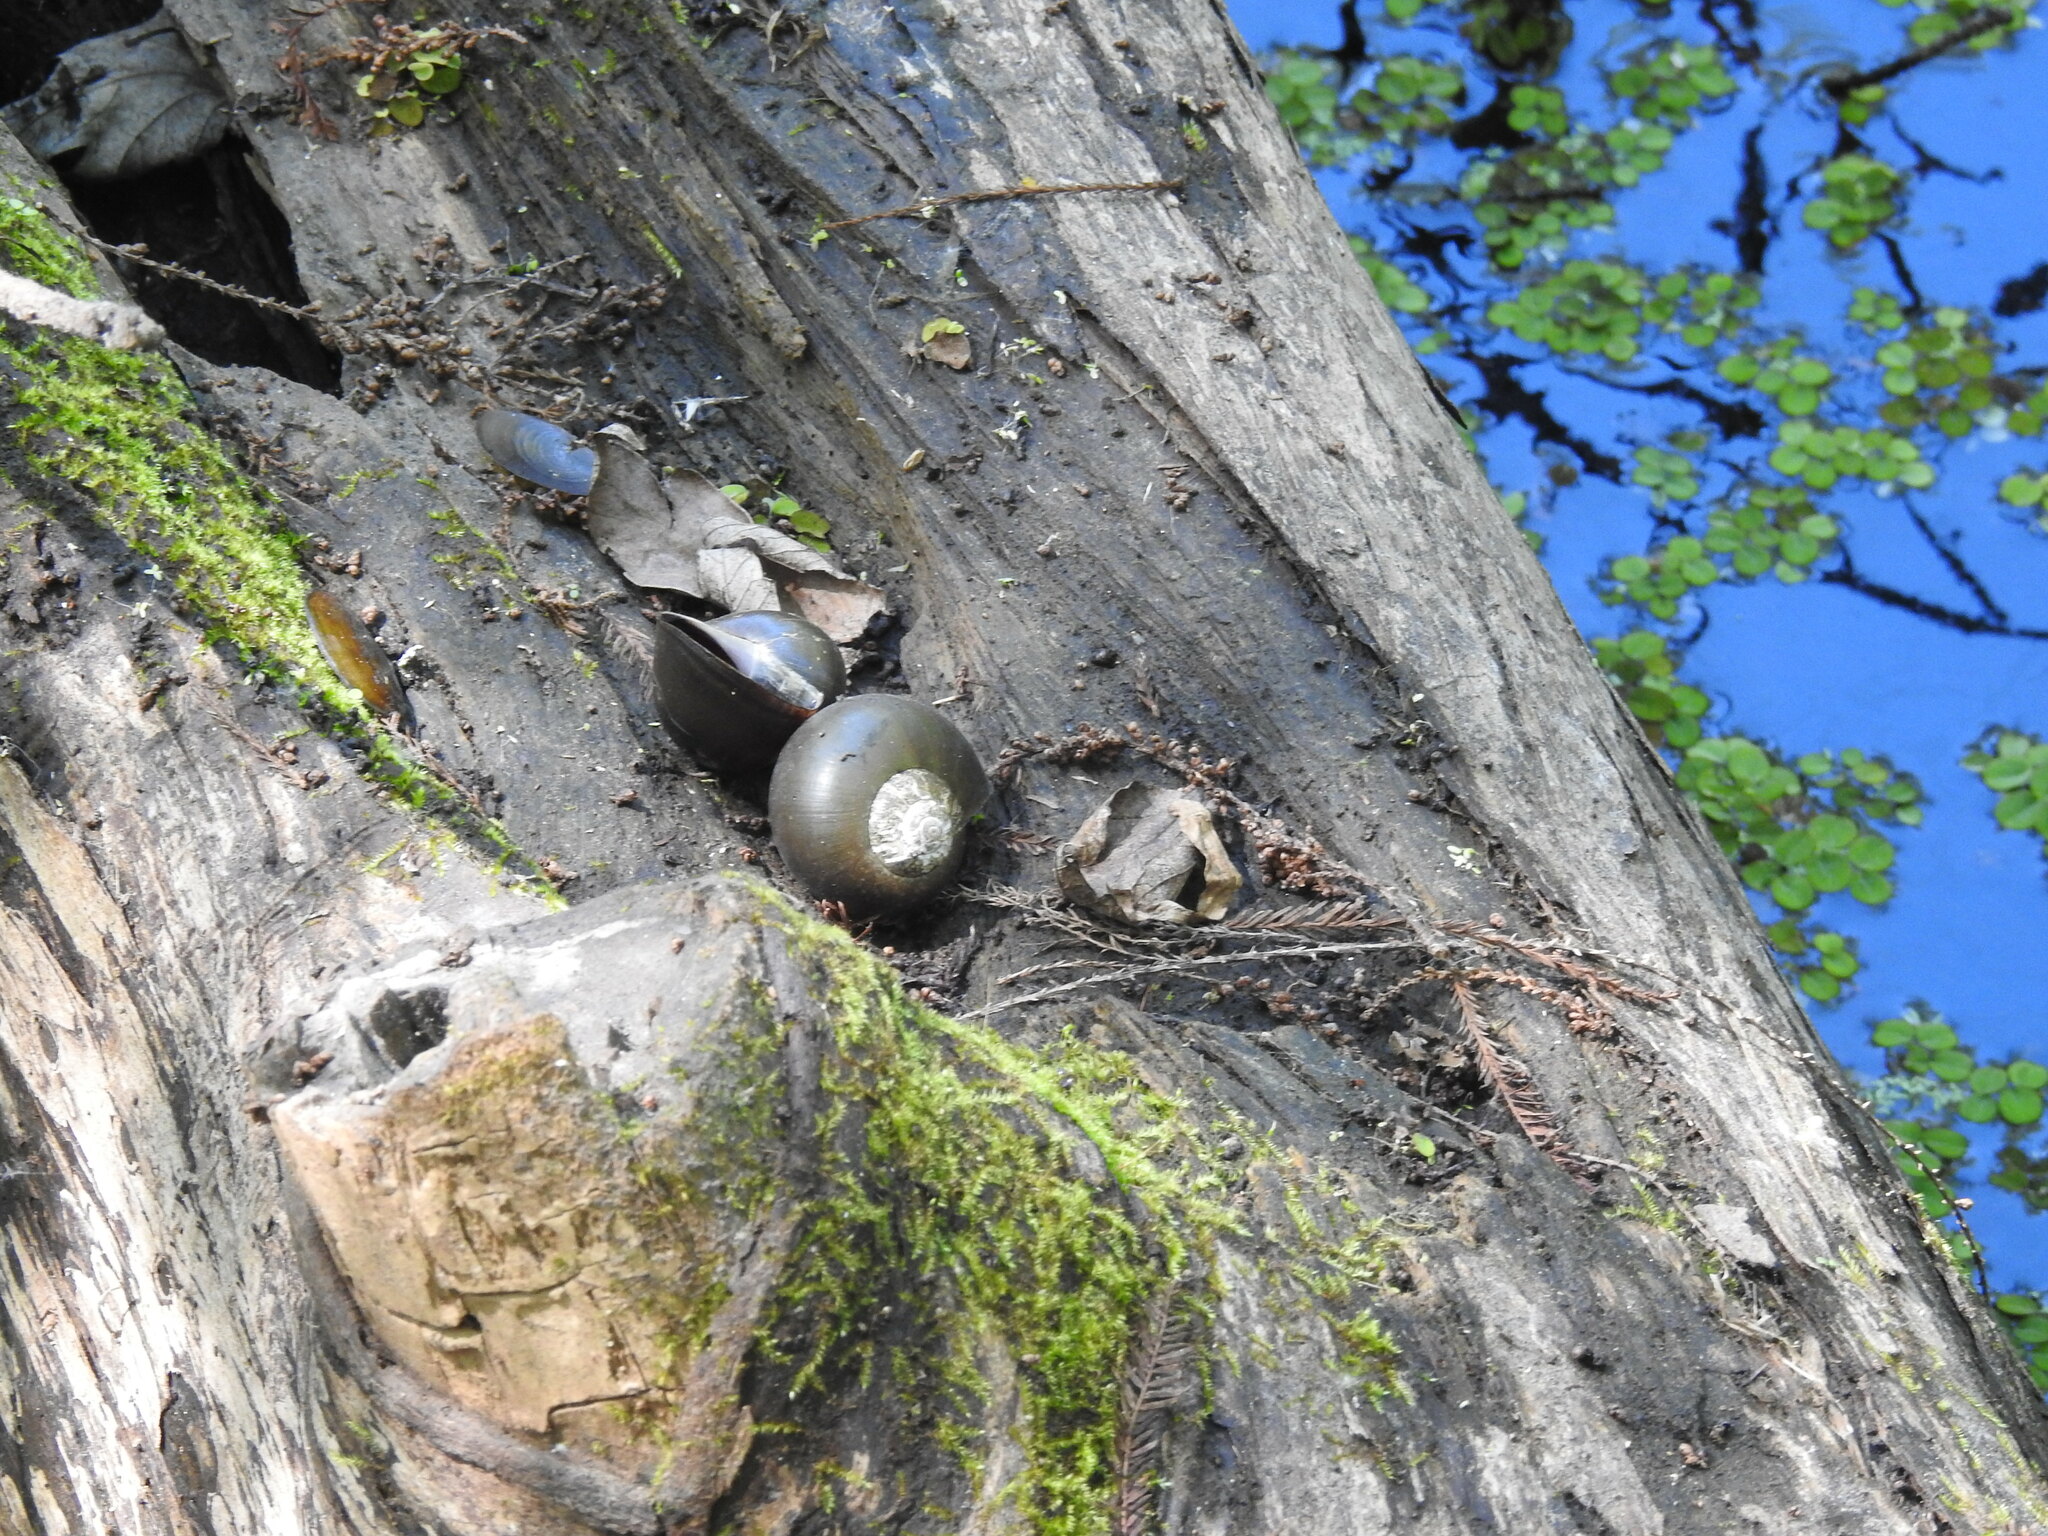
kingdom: Animalia
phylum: Mollusca
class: Gastropoda
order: Architaenioglossa
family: Ampullariidae
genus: Pomacea
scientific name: Pomacea paludosa
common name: Florida applesnail
